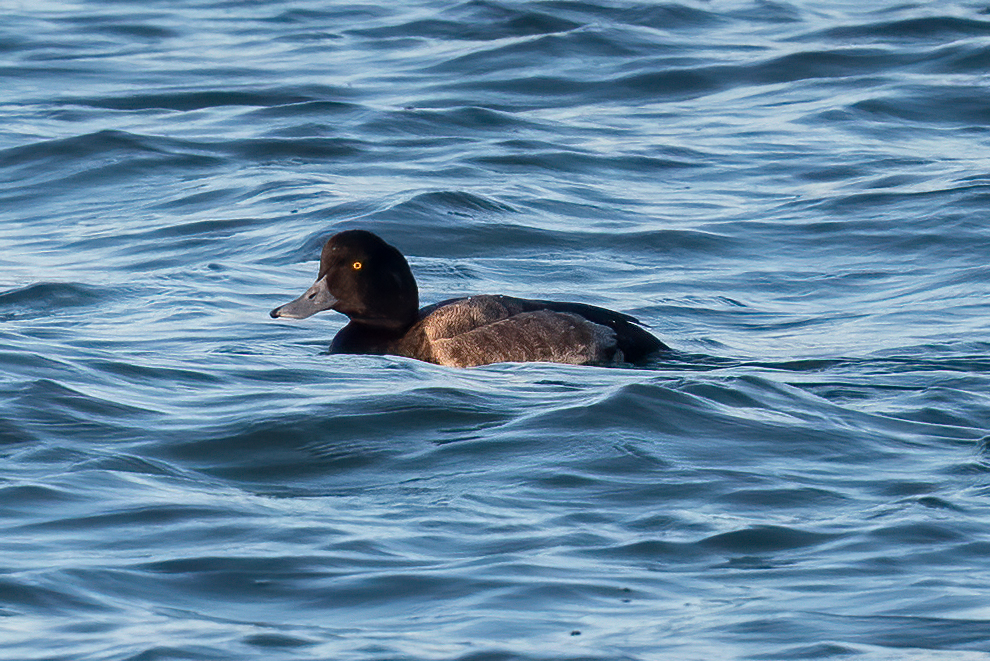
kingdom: Animalia
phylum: Chordata
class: Aves
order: Anseriformes
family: Anatidae
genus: Aythya
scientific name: Aythya marila
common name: Greater scaup
